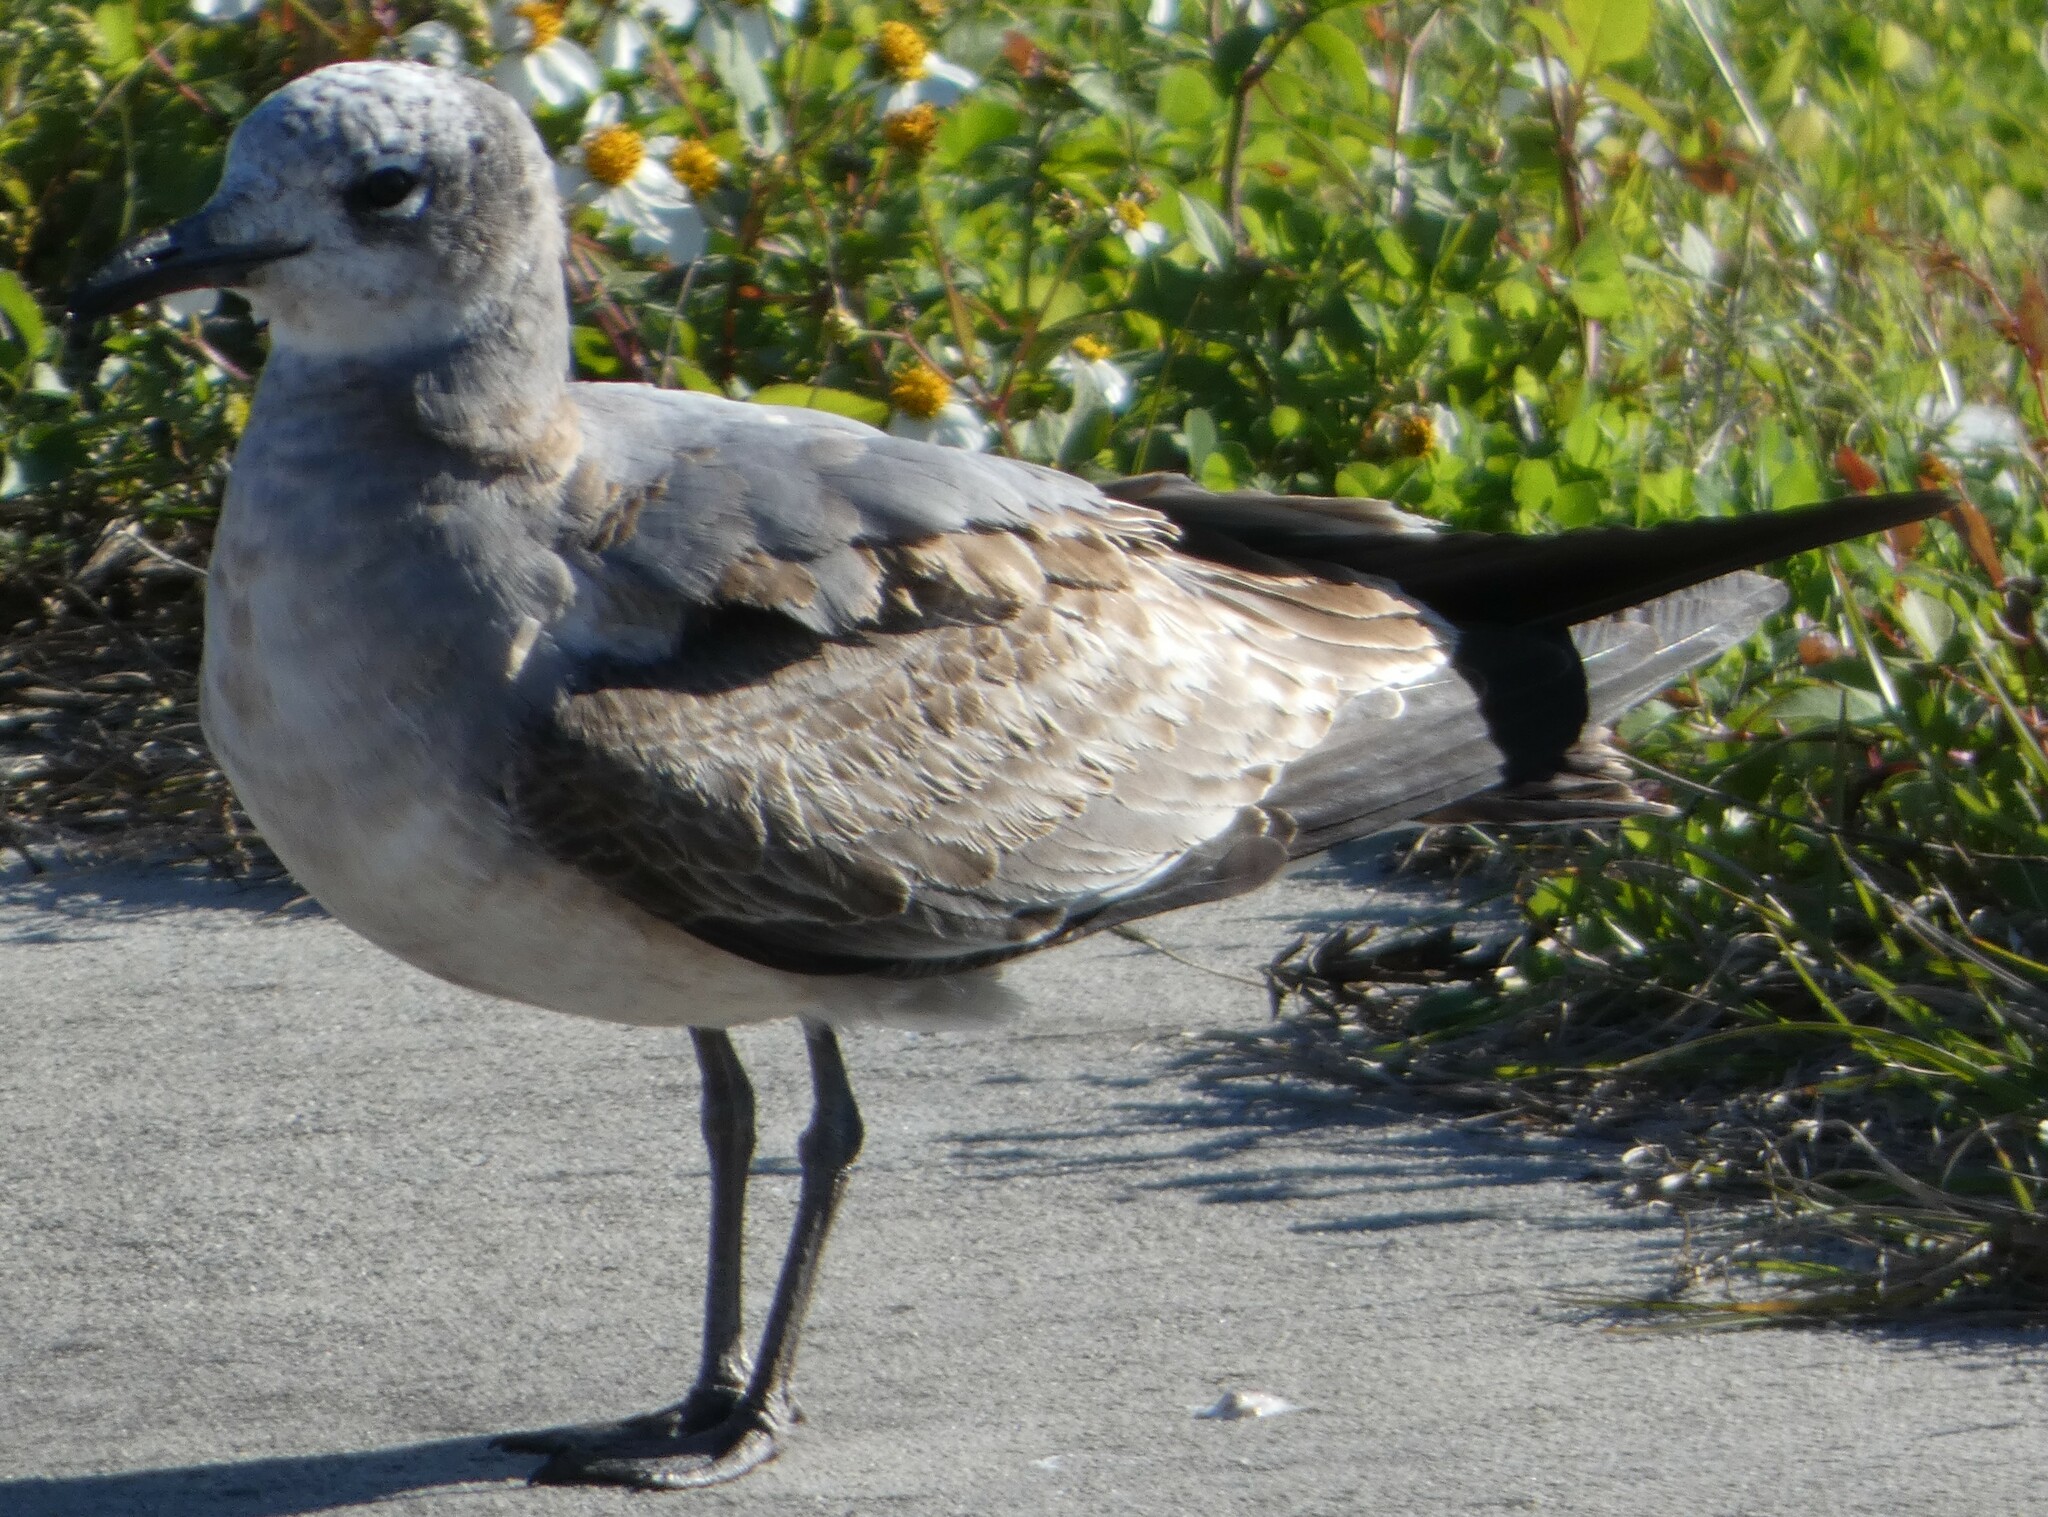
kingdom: Animalia
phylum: Chordata
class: Aves
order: Charadriiformes
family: Laridae
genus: Leucophaeus
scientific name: Leucophaeus atricilla
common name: Laughing gull
